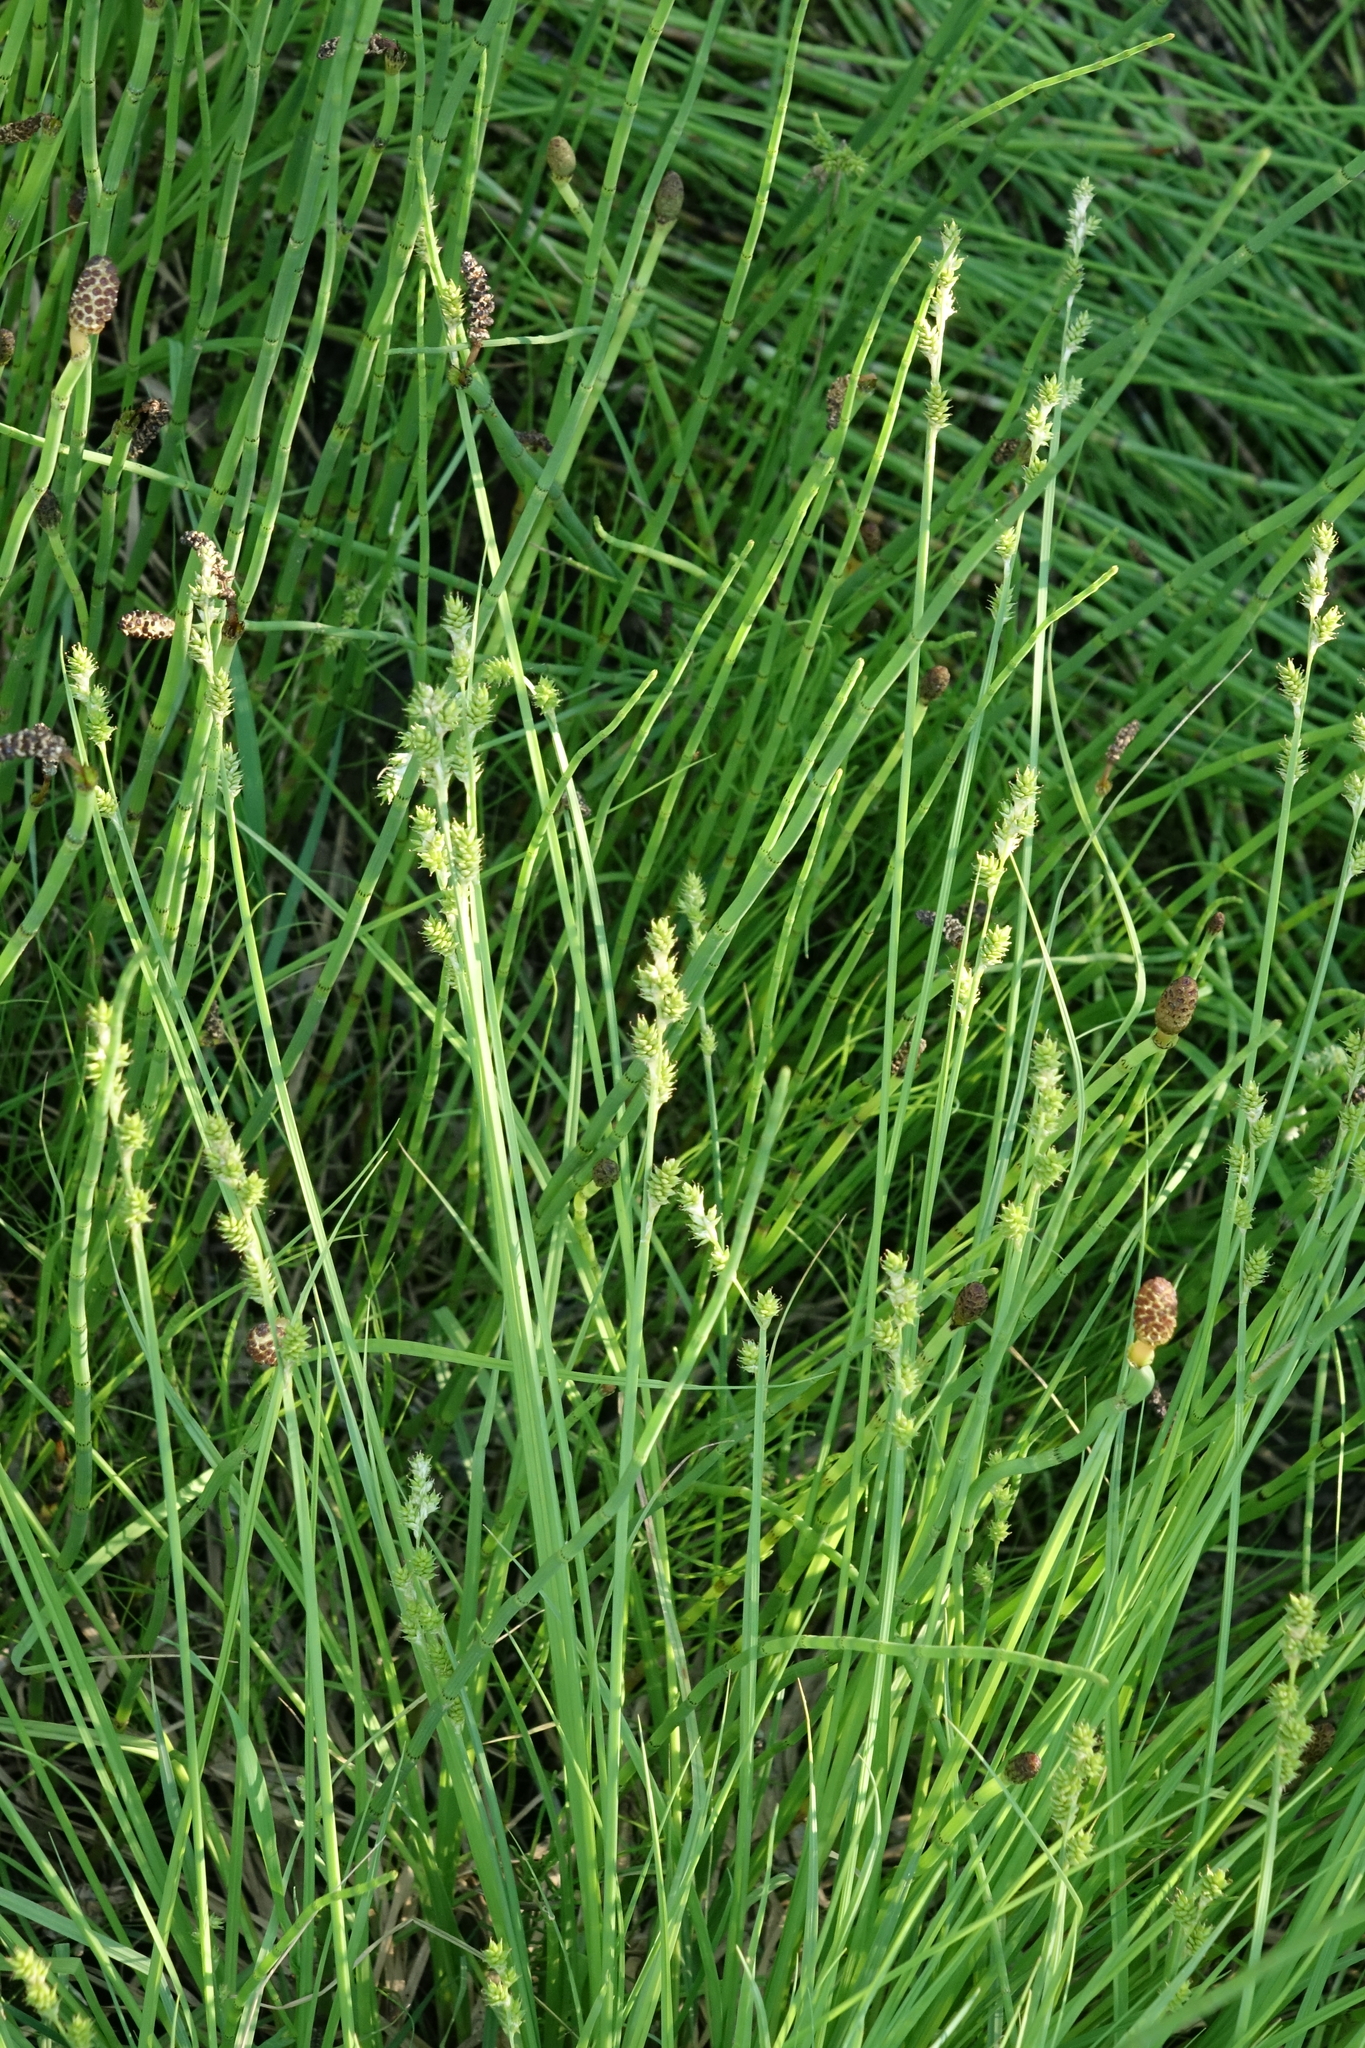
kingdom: Plantae
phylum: Tracheophyta
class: Liliopsida
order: Poales
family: Cyperaceae
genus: Carex
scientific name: Carex canescens
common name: White sedge
